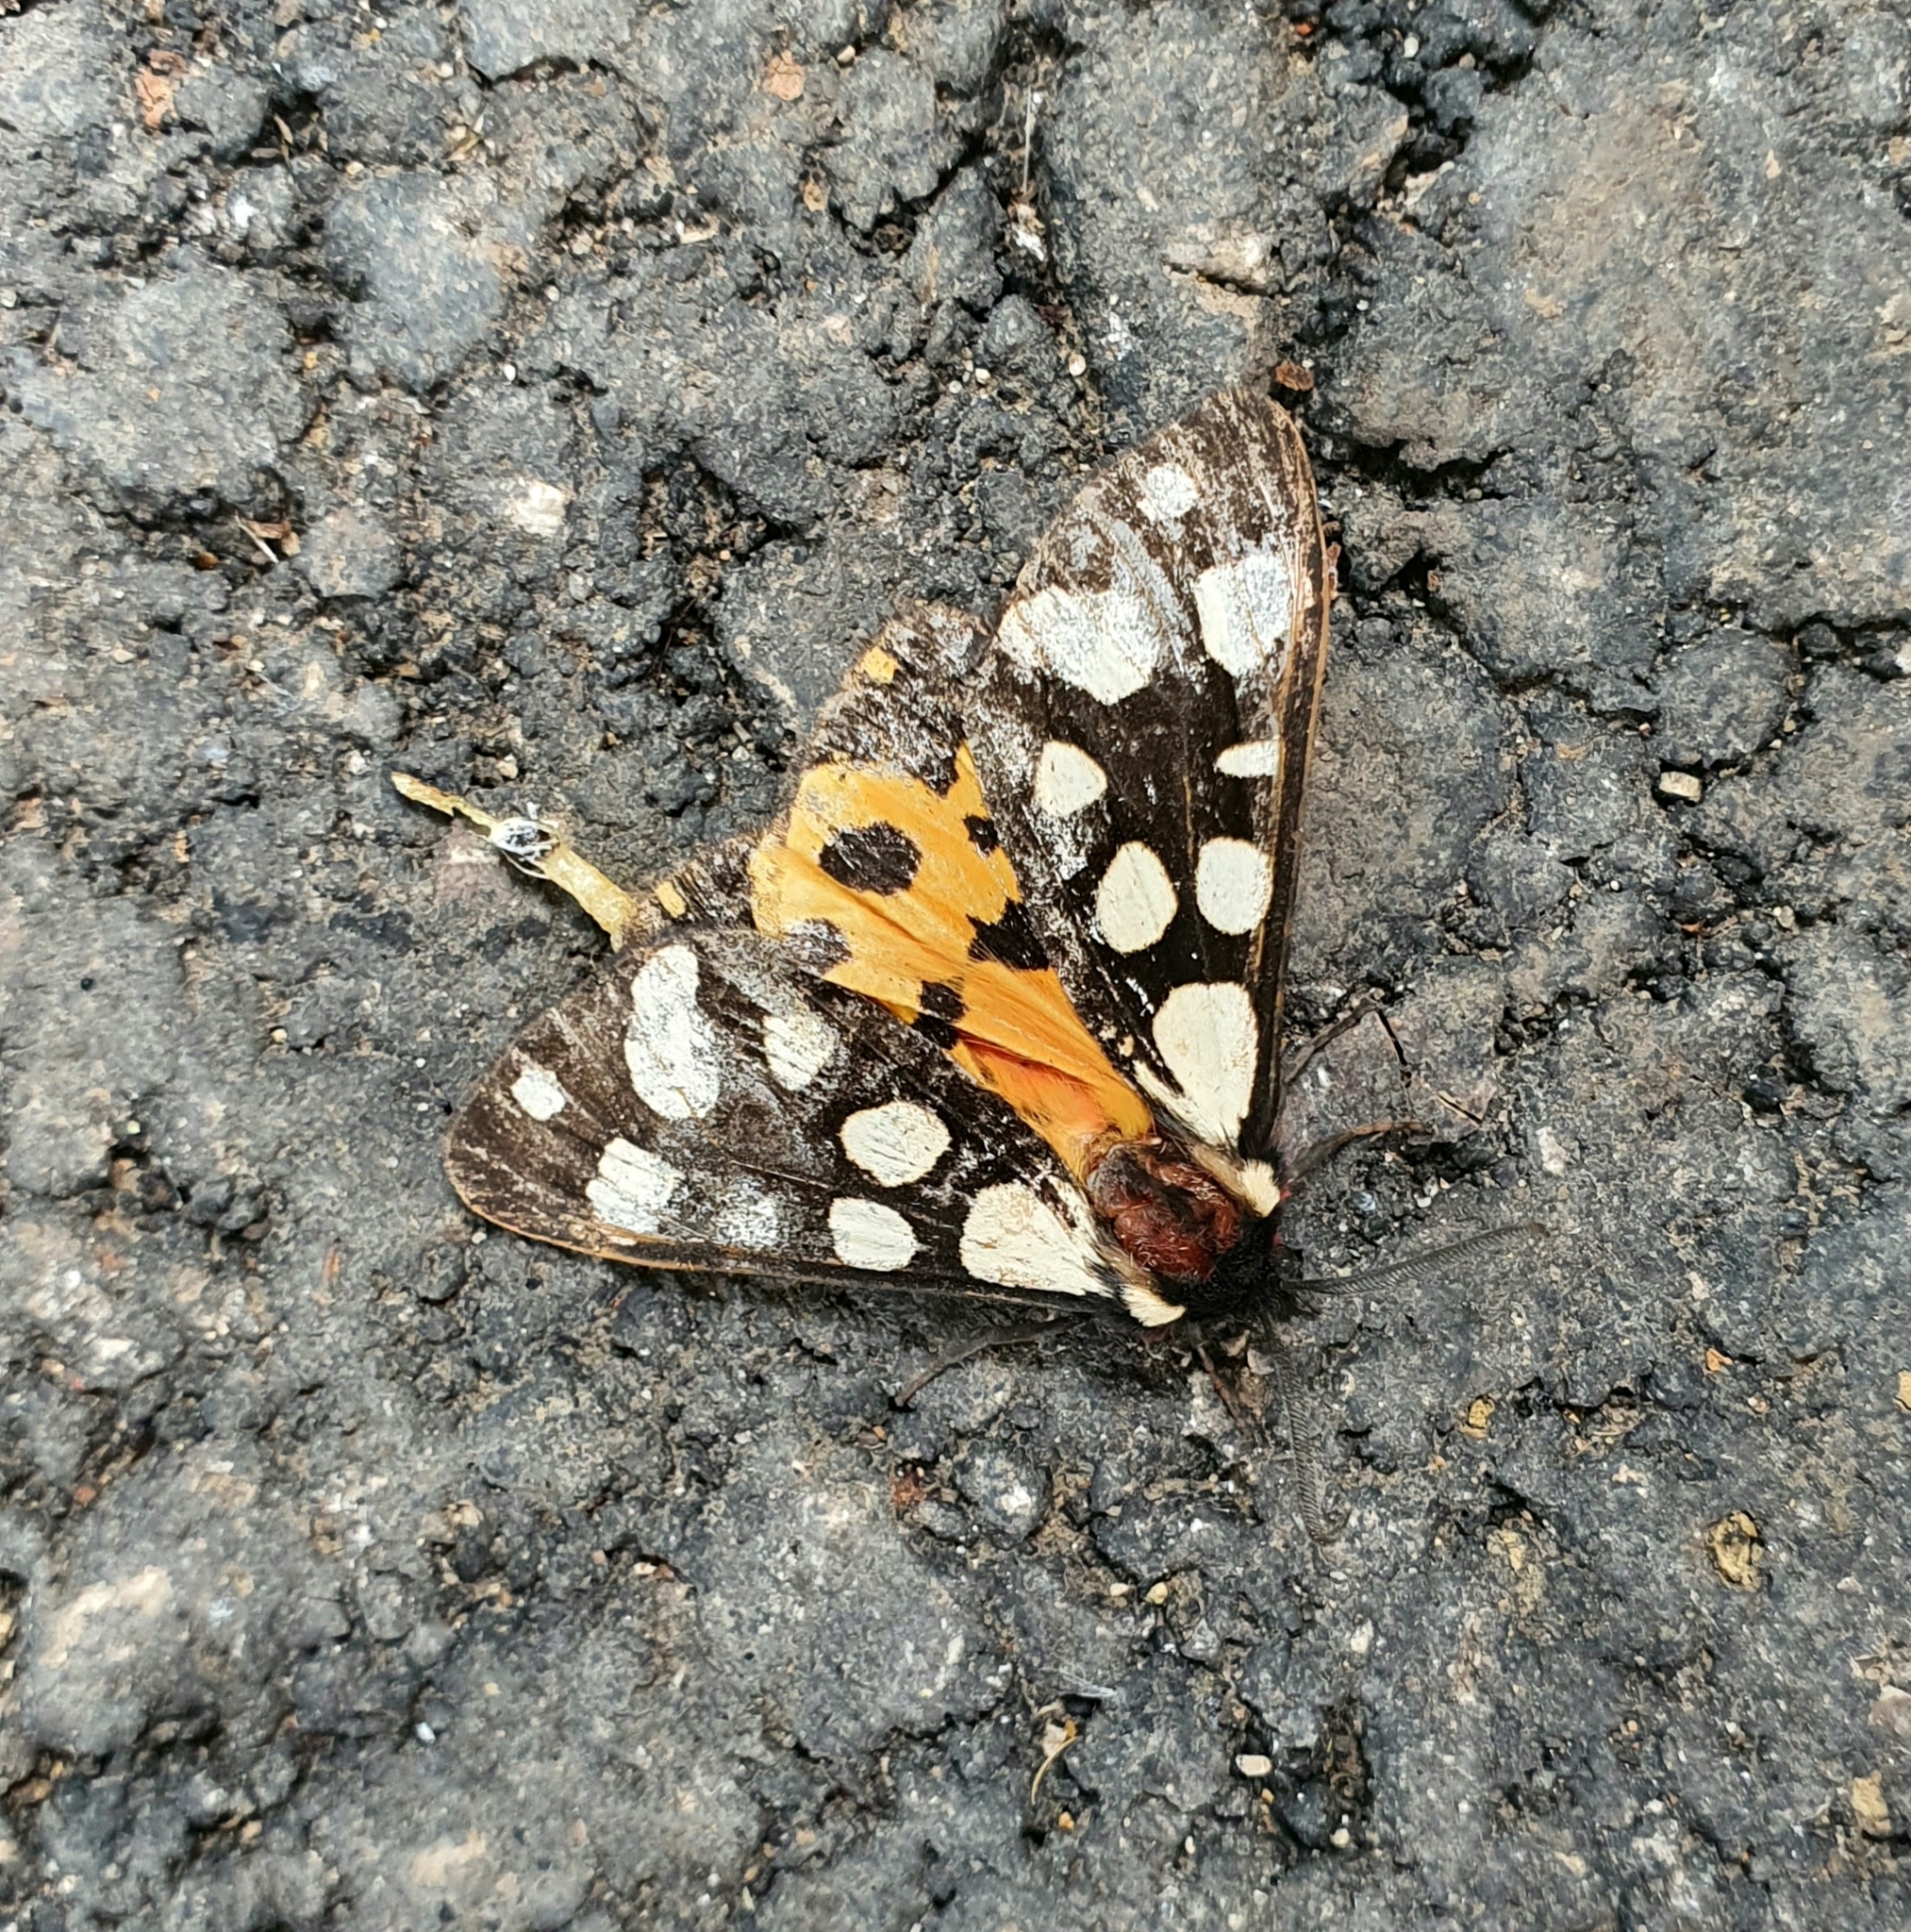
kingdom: Animalia
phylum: Arthropoda
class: Insecta
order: Lepidoptera
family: Erebidae
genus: Epicallia
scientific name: Epicallia villica
